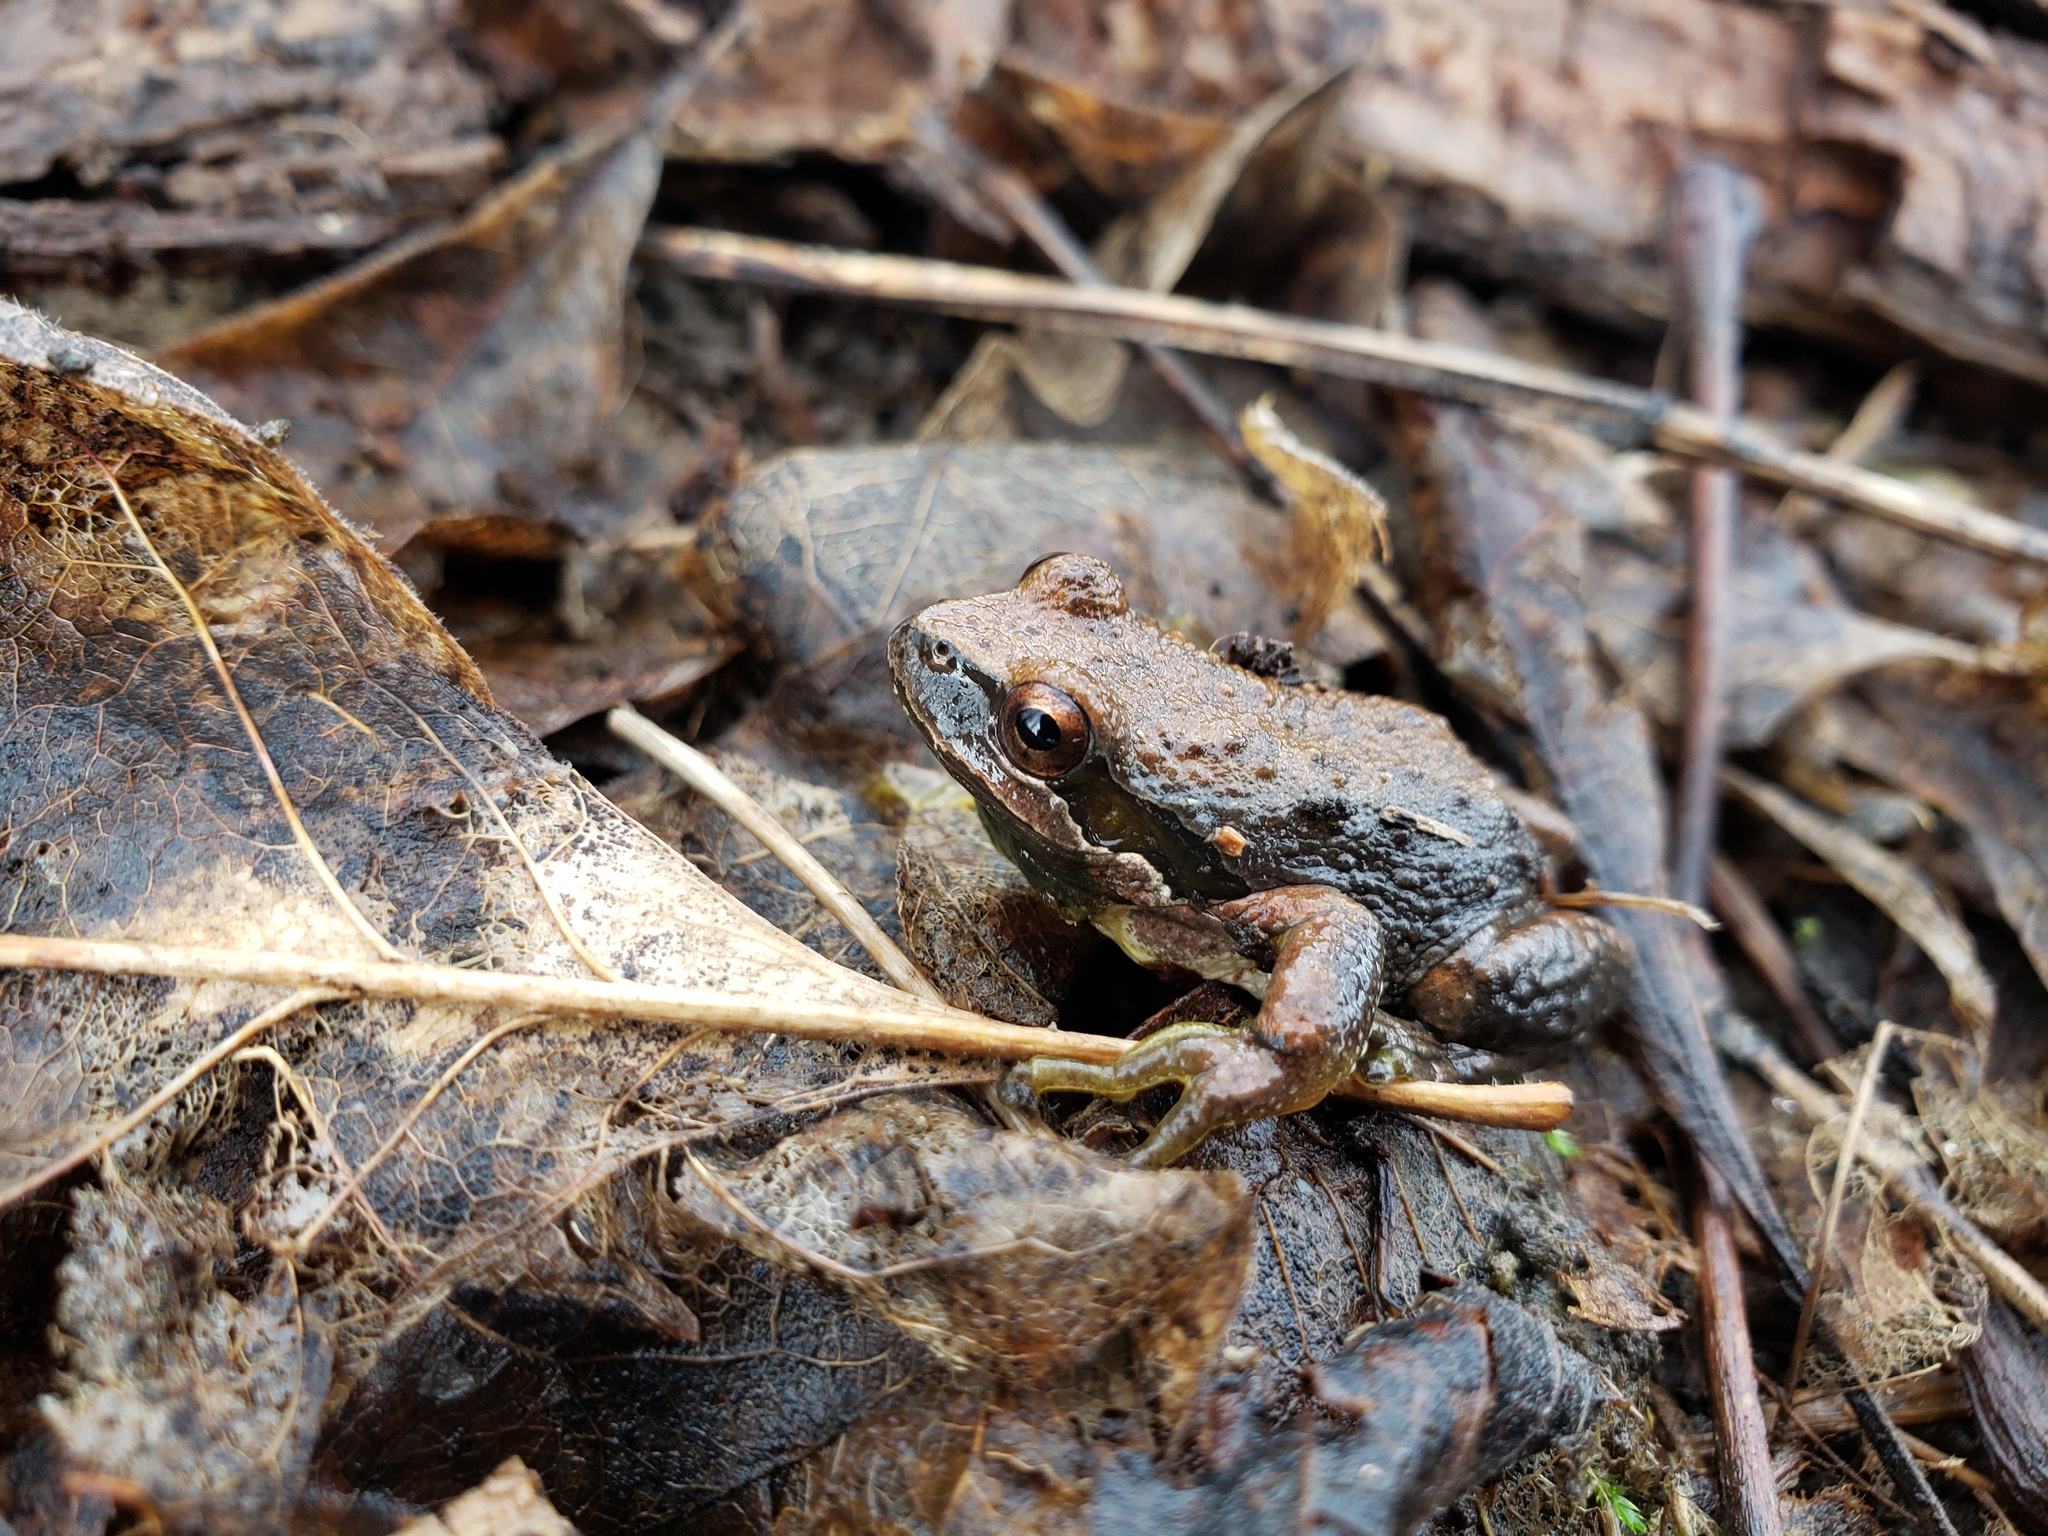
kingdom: Animalia
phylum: Chordata
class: Amphibia
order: Anura
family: Hylidae
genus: Pseudacris
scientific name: Pseudacris regilla
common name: Pacific chorus frog
